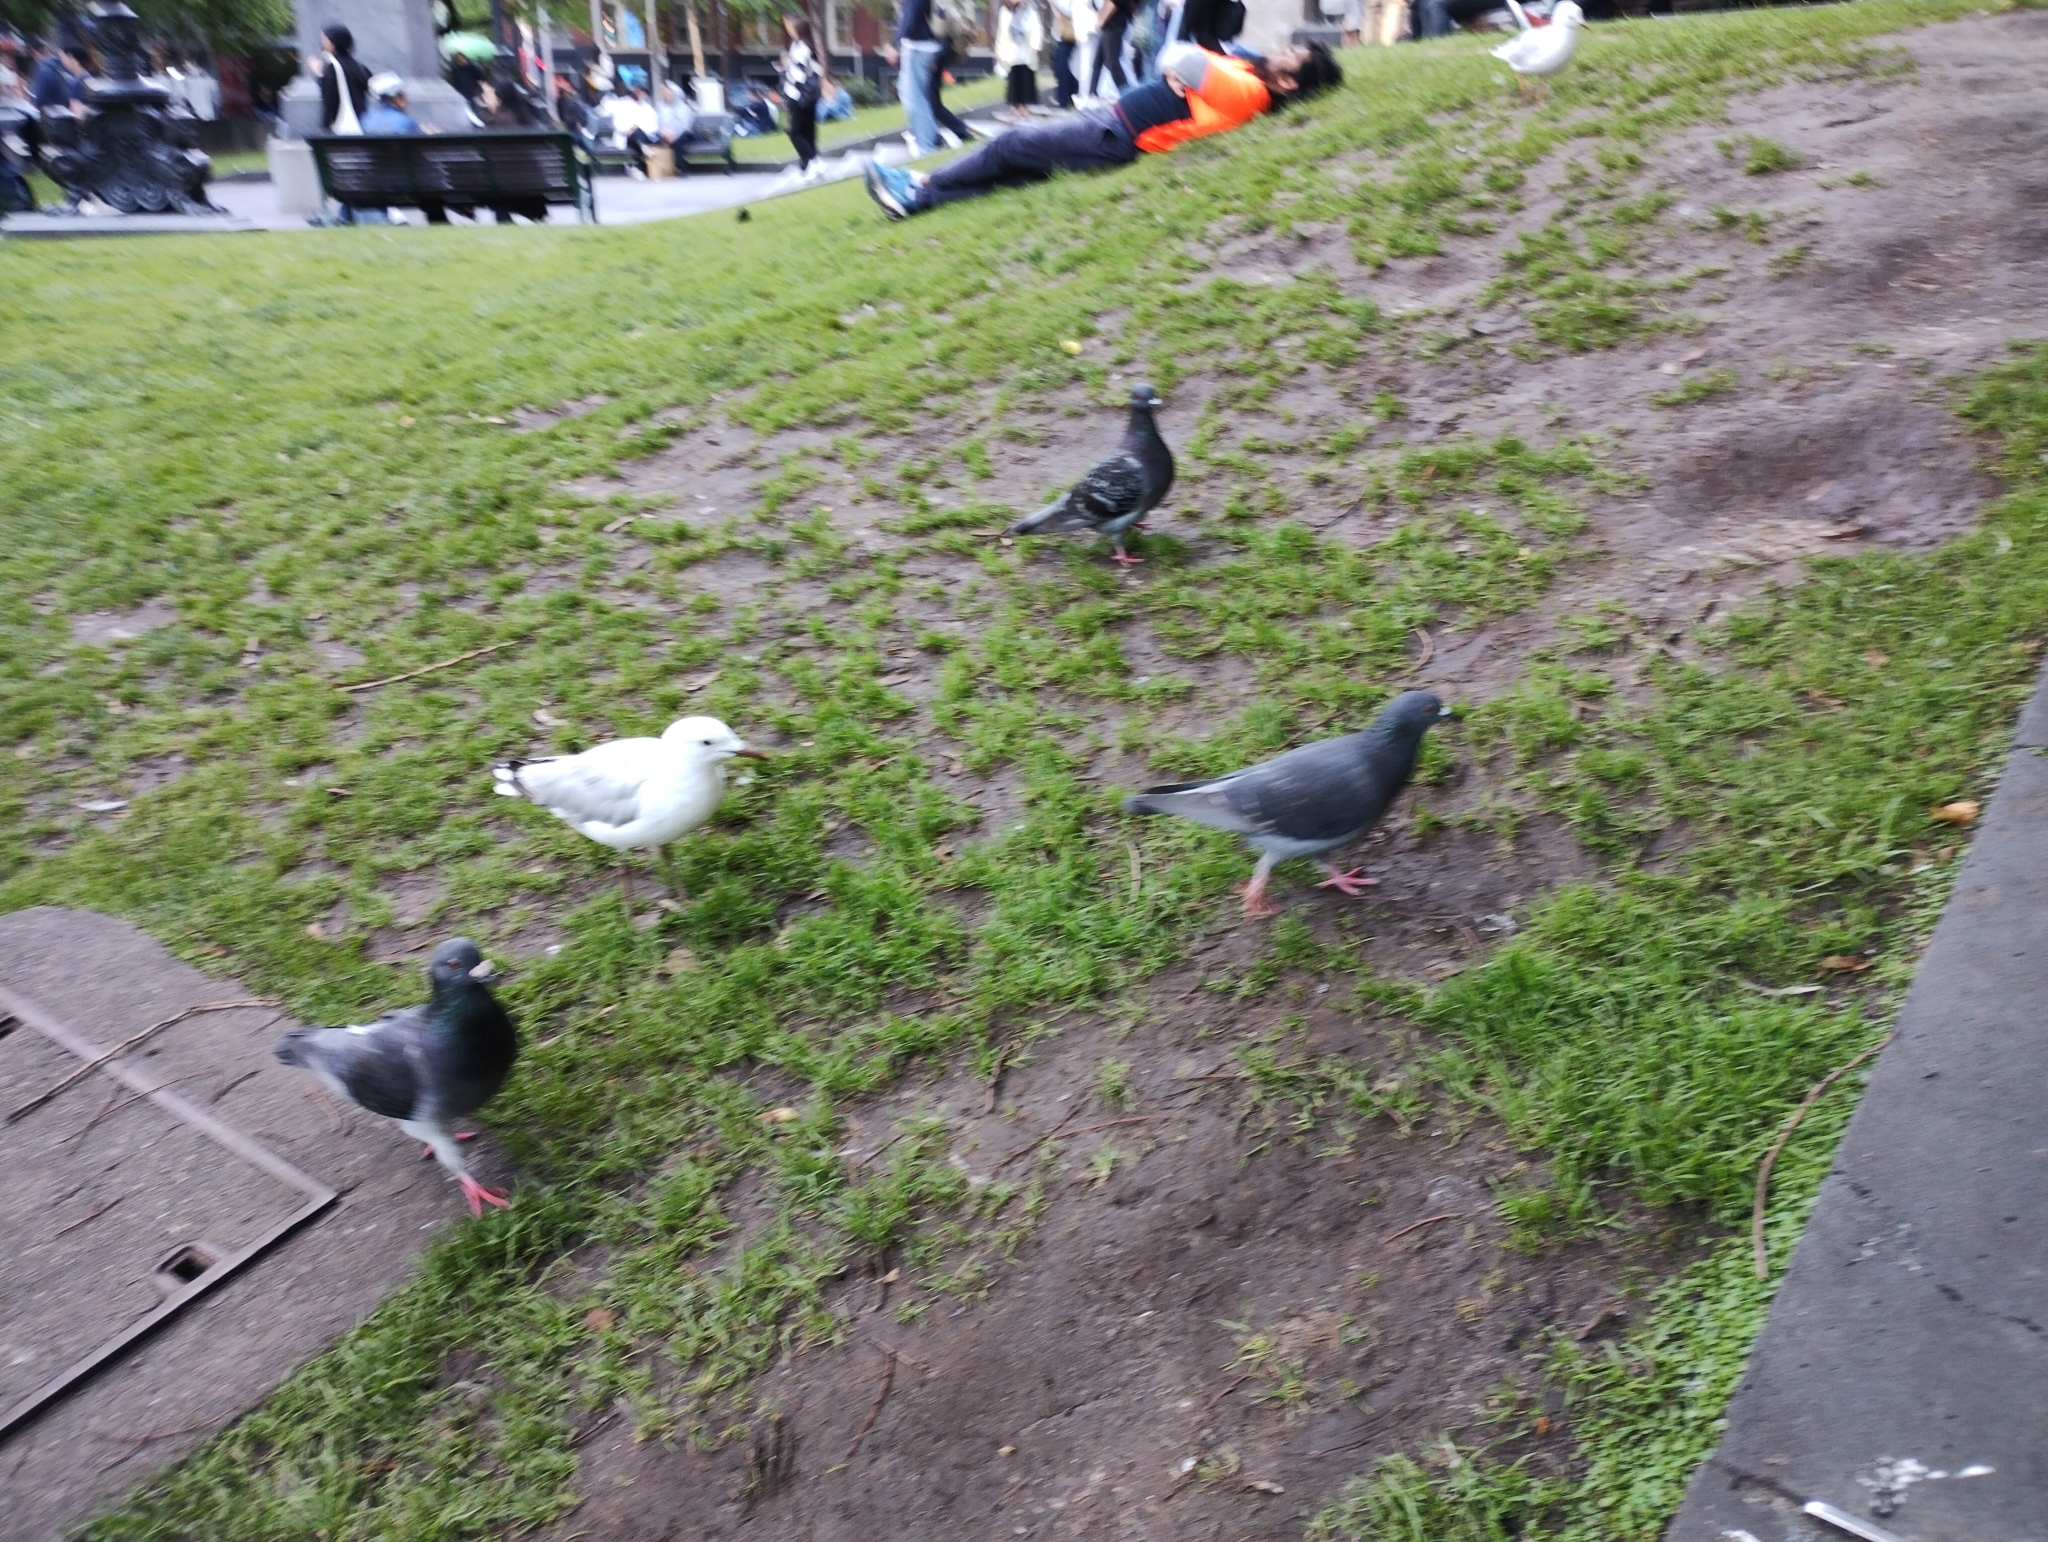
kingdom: Animalia
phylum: Chordata
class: Aves
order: Charadriiformes
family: Laridae
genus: Chroicocephalus
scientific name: Chroicocephalus novaehollandiae
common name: Silver gull
